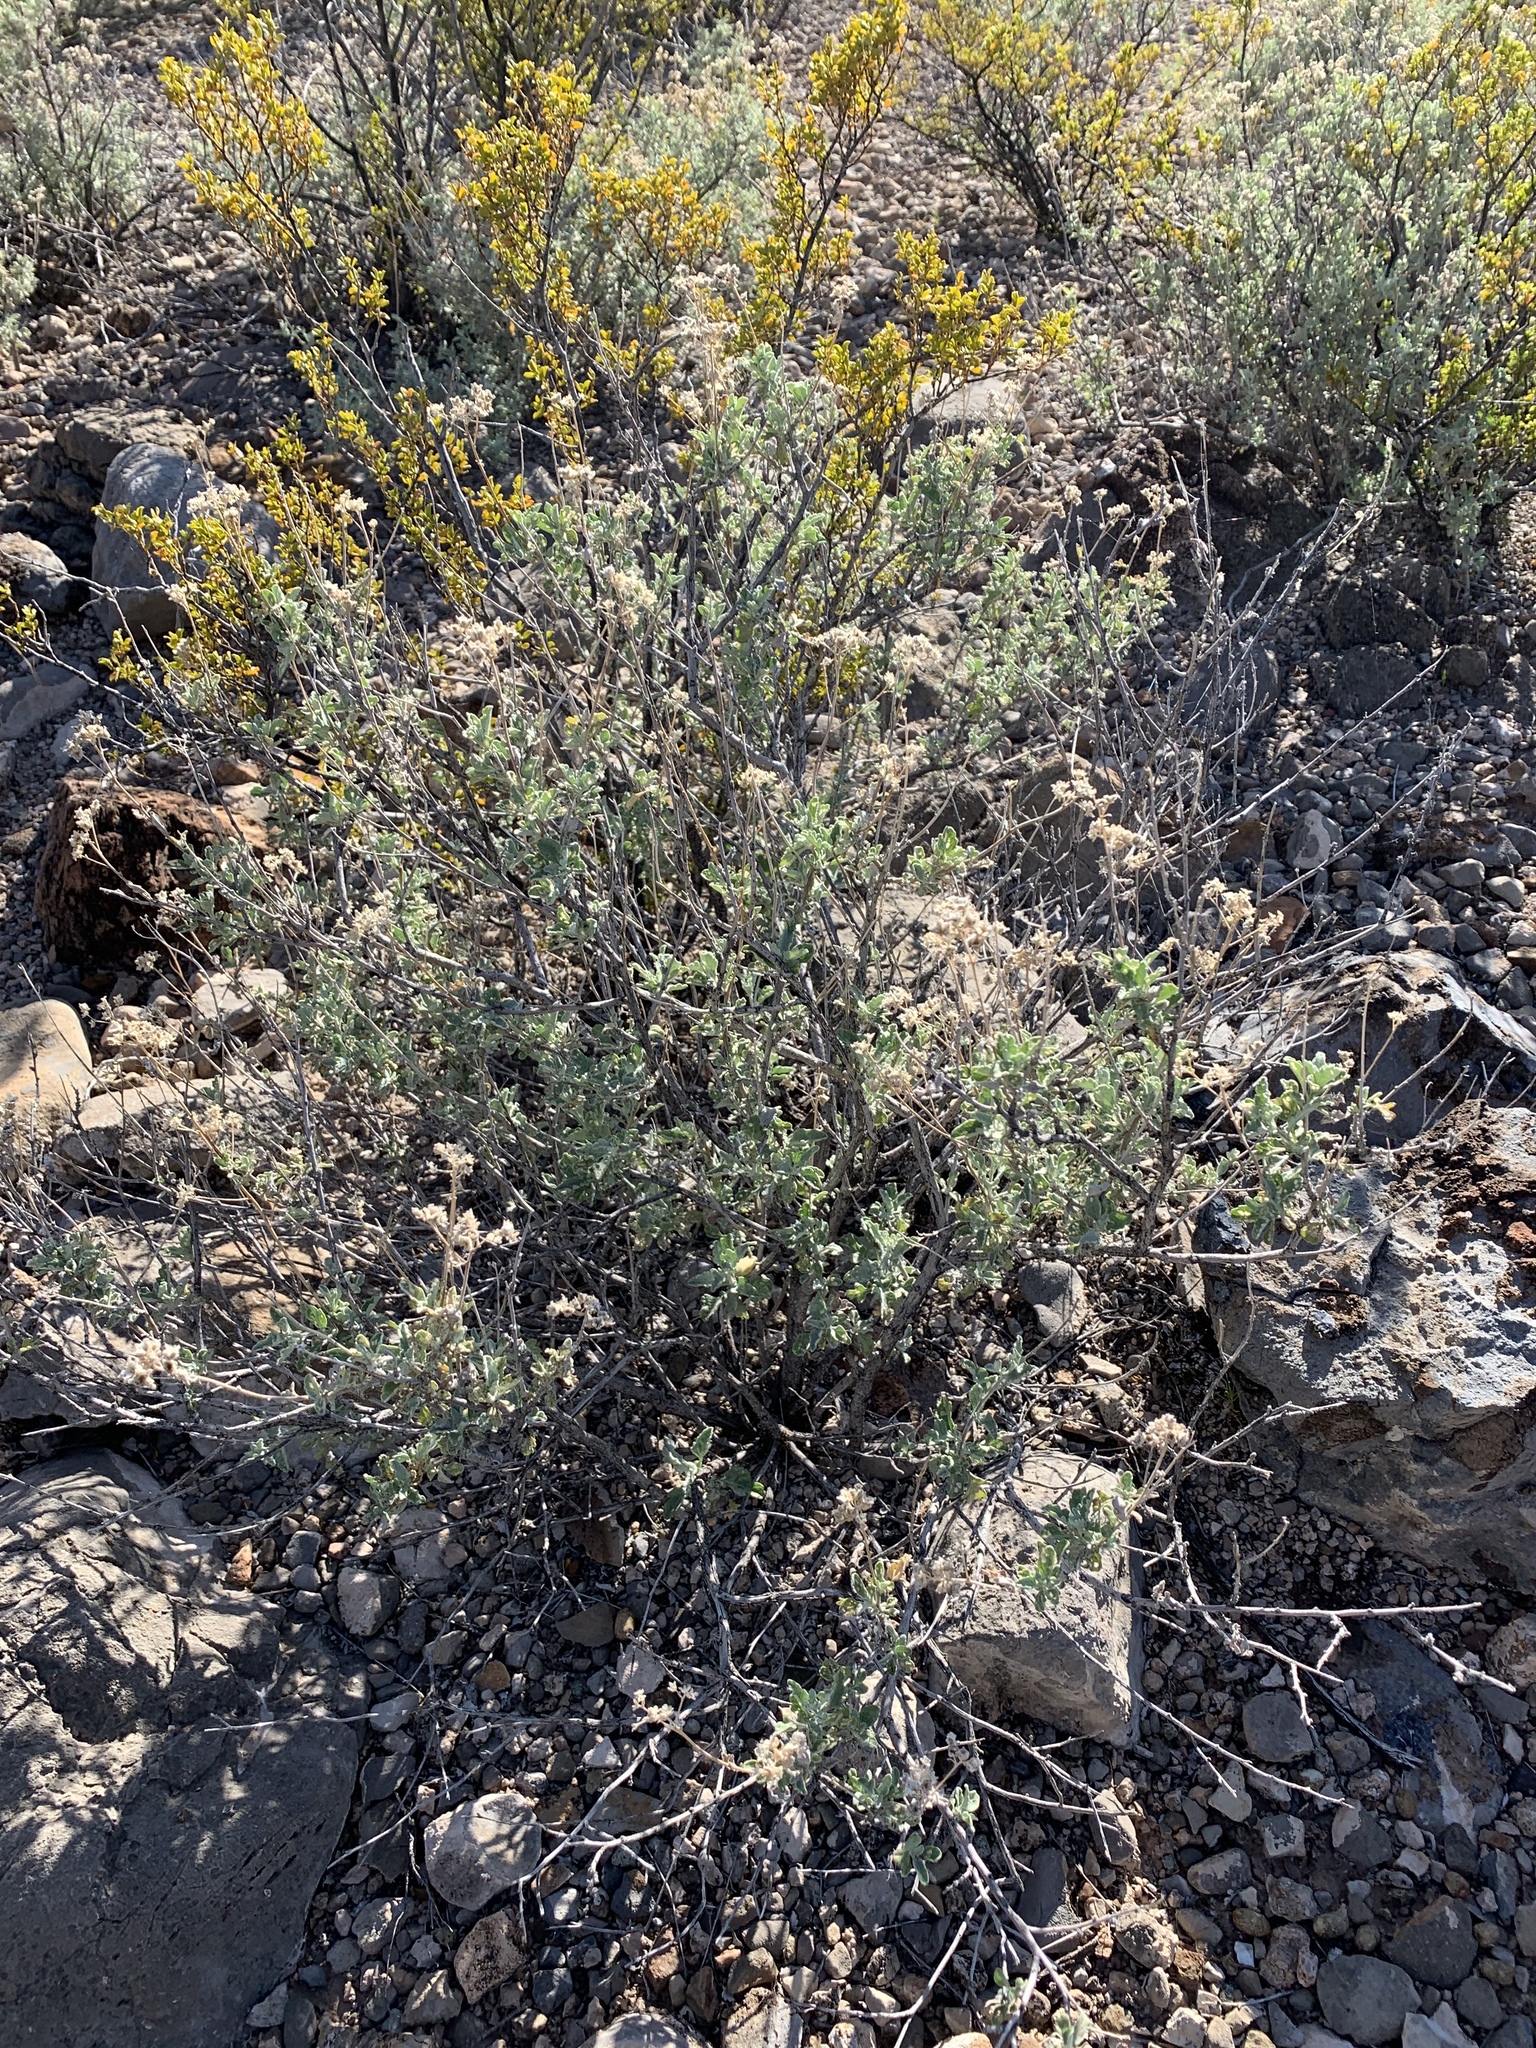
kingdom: Plantae
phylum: Tracheophyta
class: Magnoliopsida
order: Asterales
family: Asteraceae
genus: Parthenium
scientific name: Parthenium incanum
